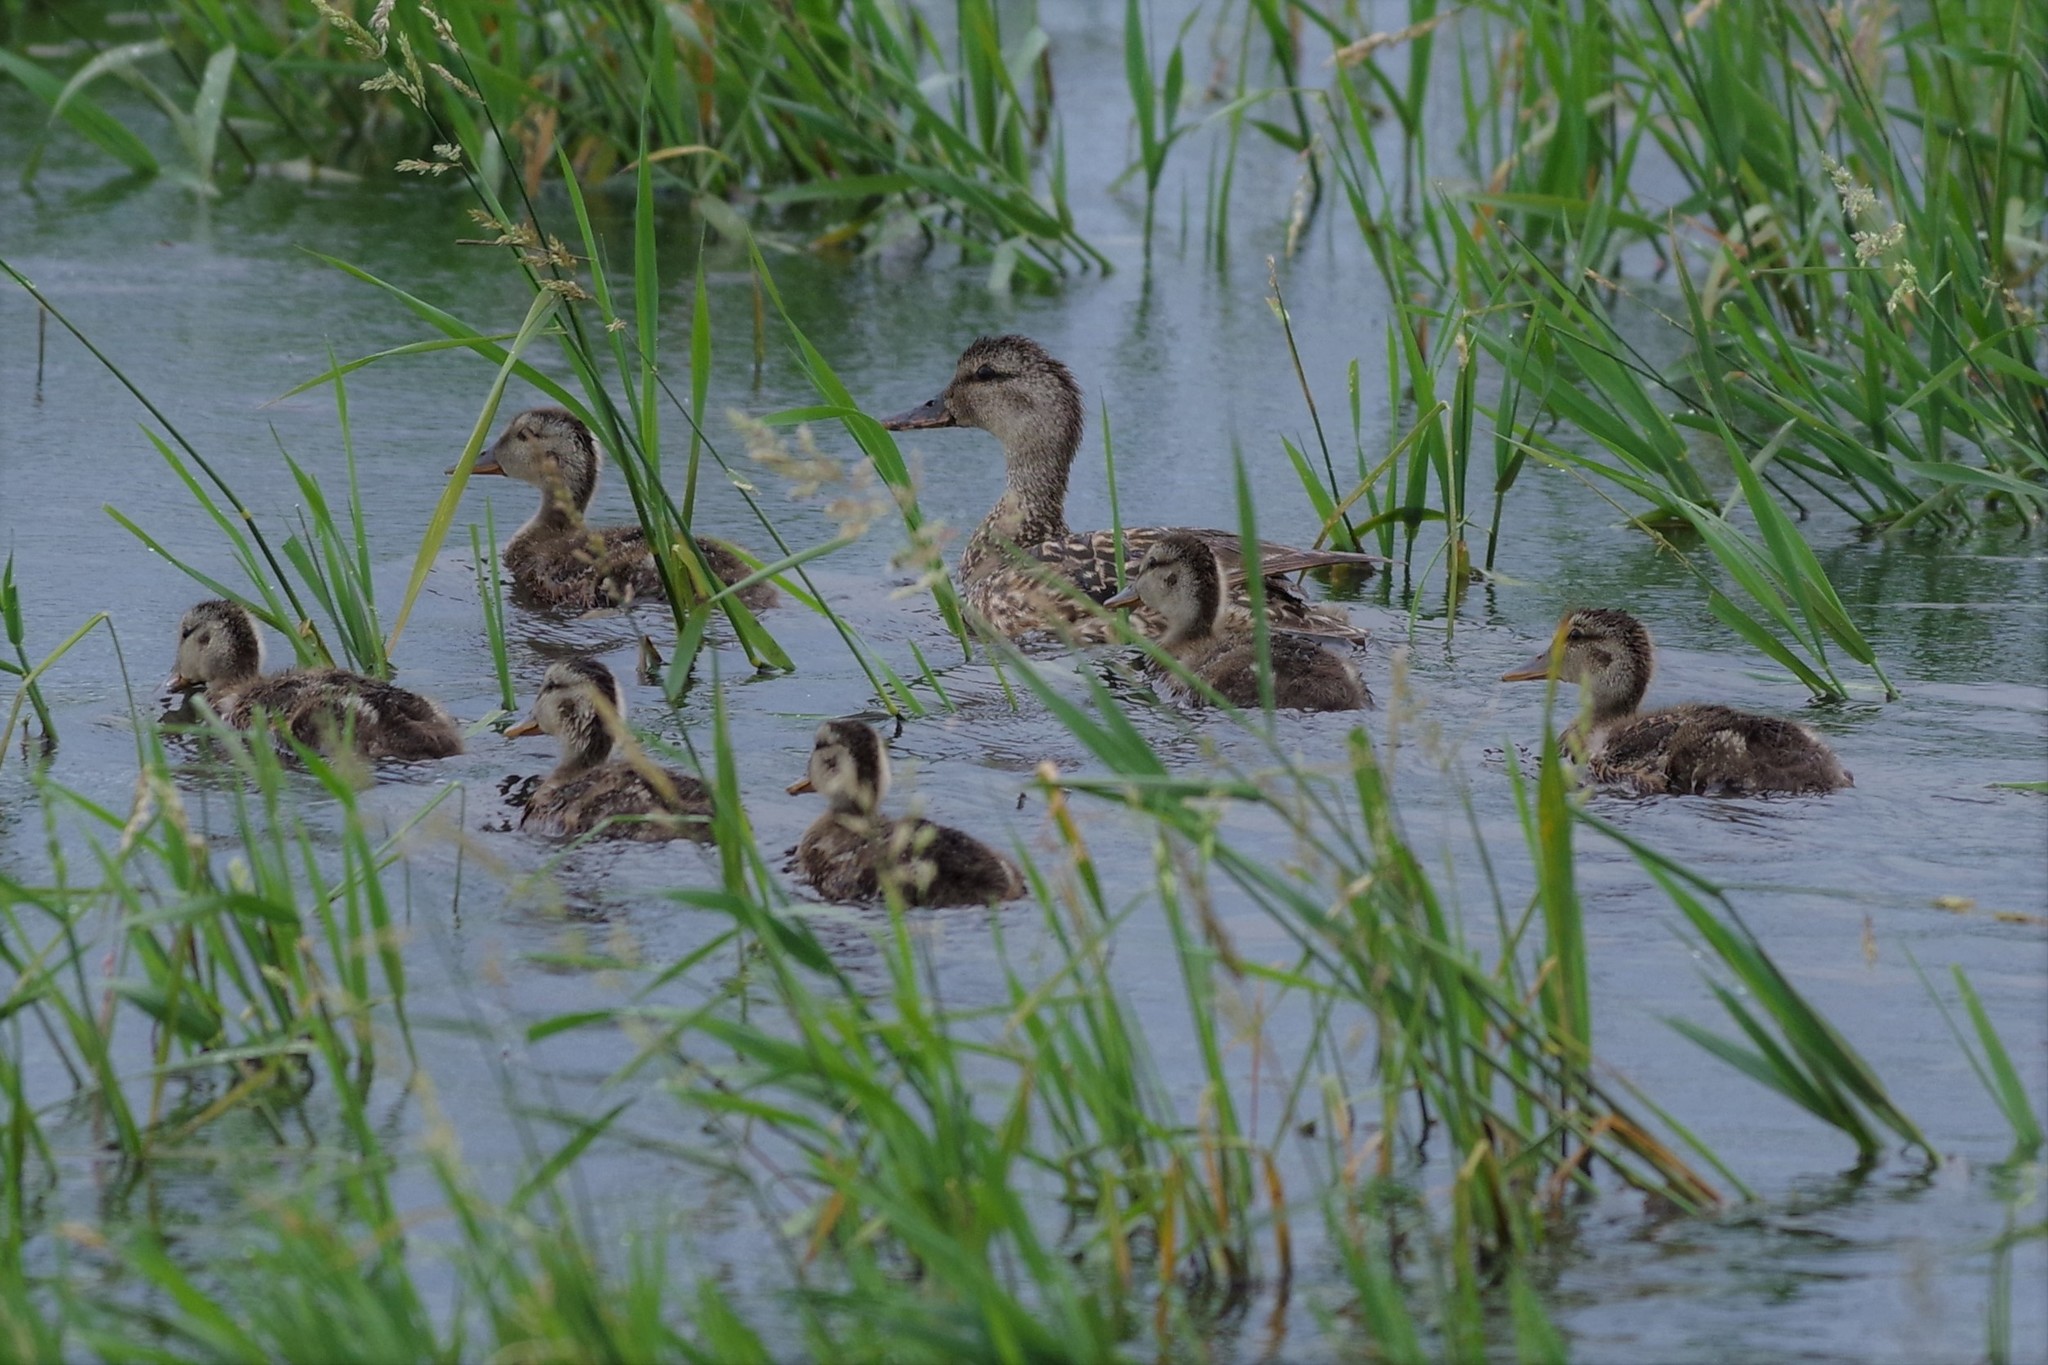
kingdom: Animalia
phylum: Chordata
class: Aves
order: Anseriformes
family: Anatidae
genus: Mareca
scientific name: Mareca strepera
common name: Gadwall
